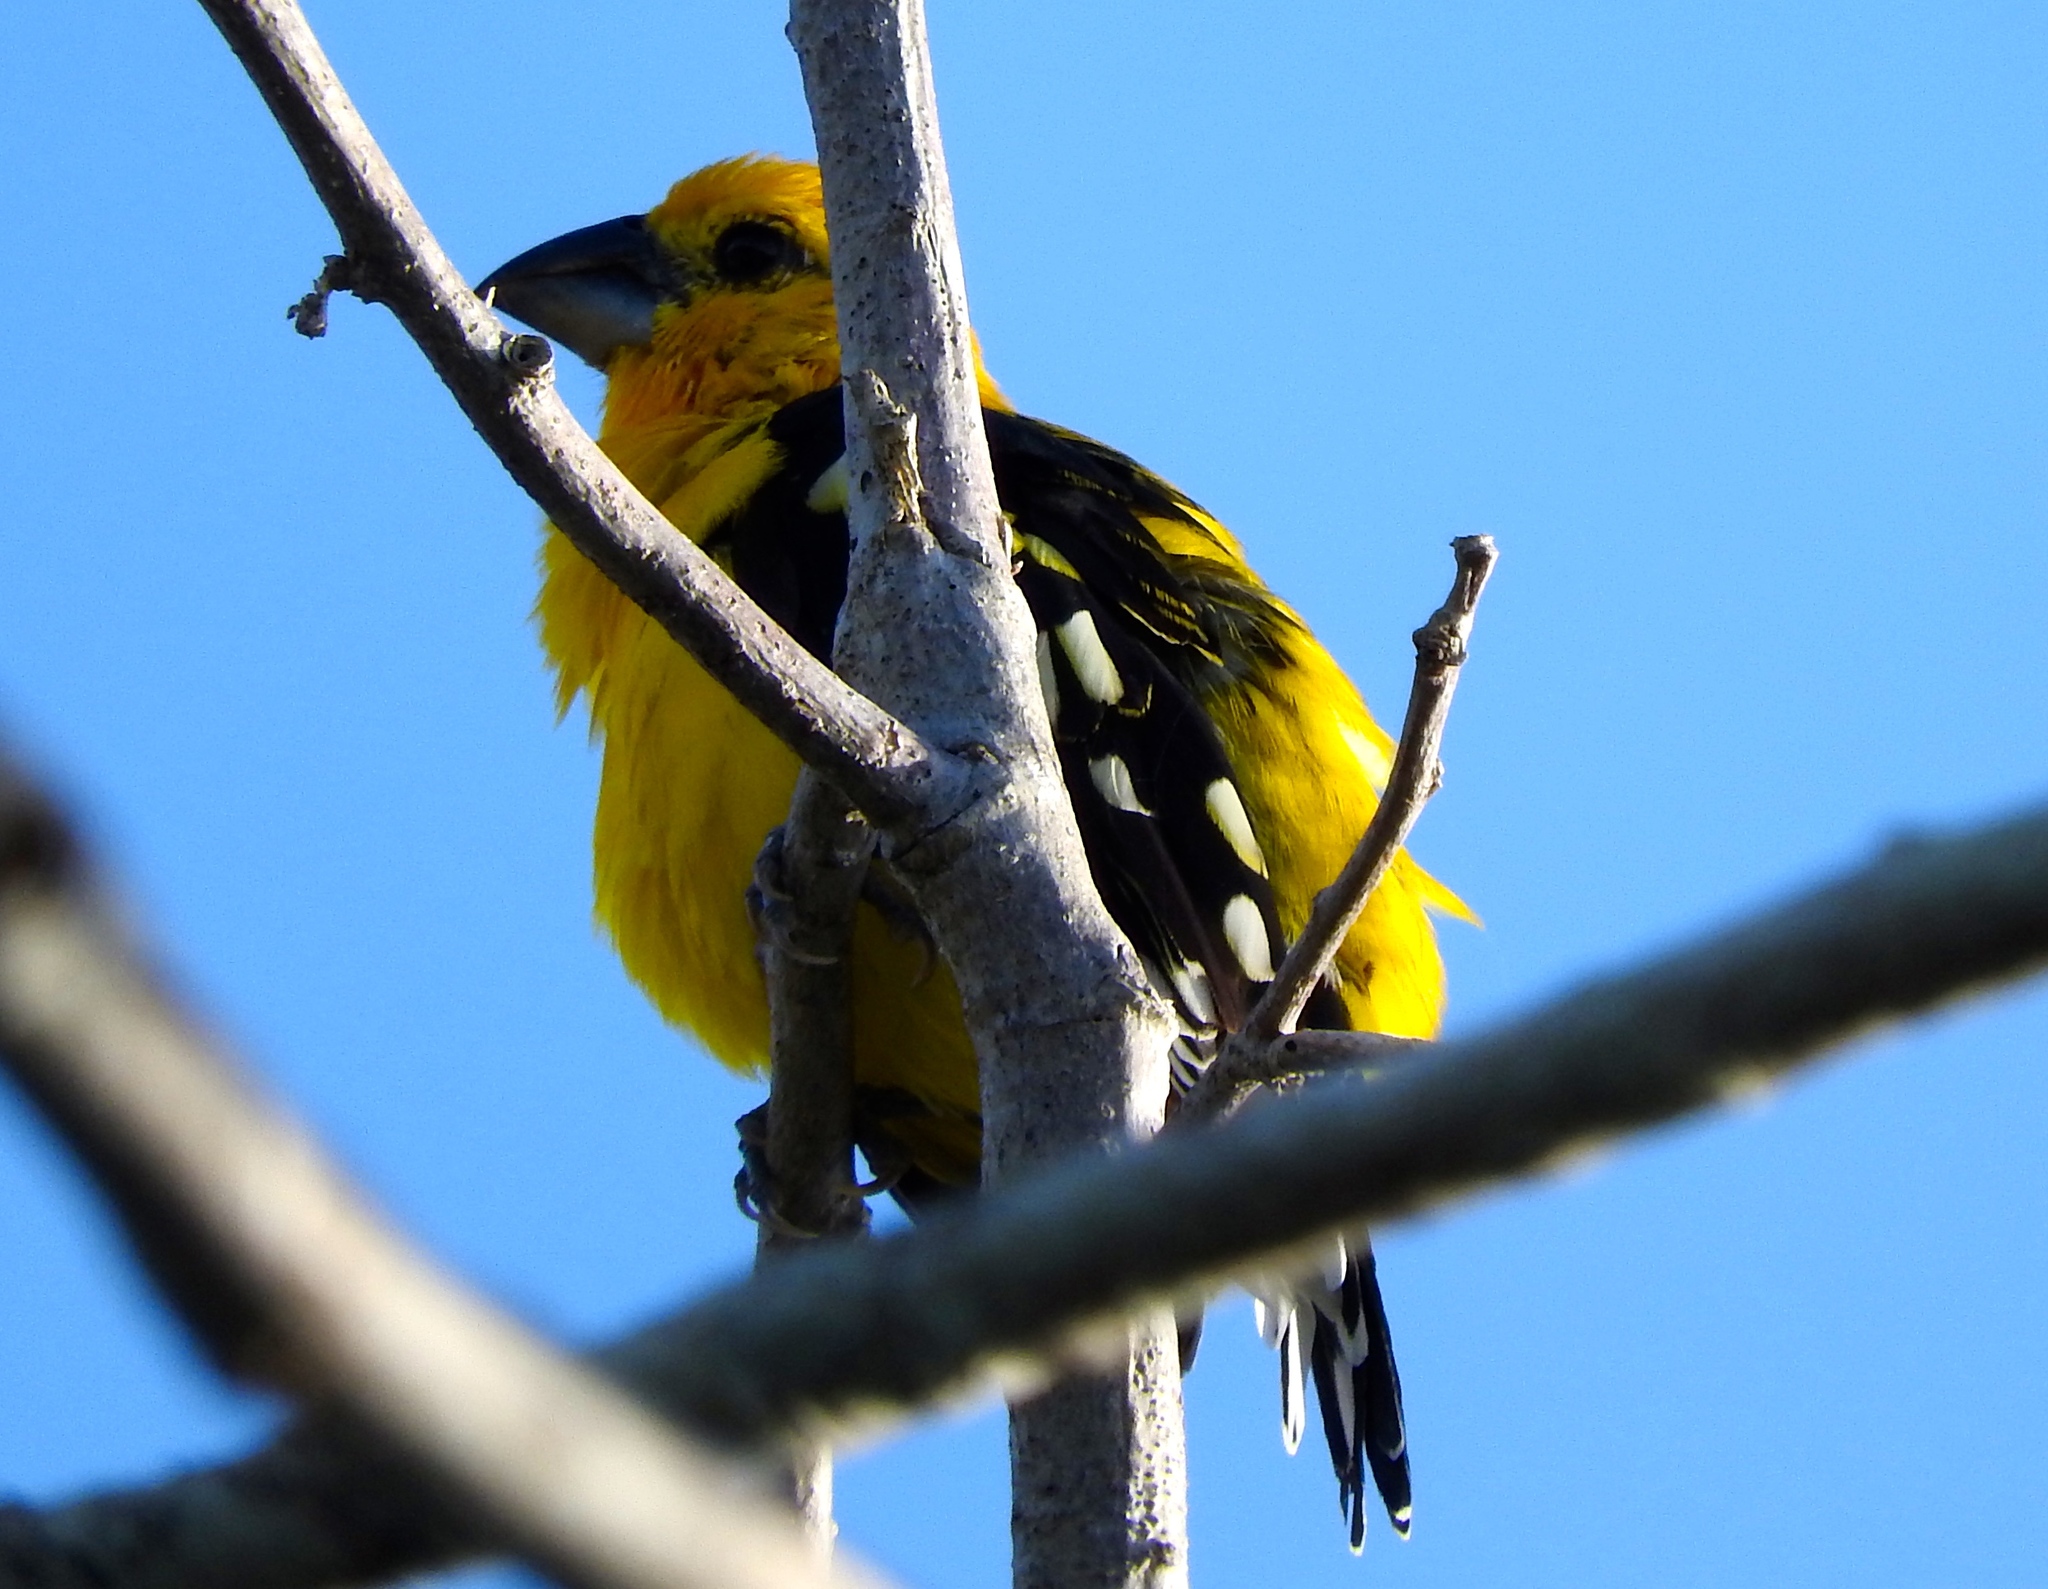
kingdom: Animalia
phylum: Chordata
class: Aves
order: Passeriformes
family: Cardinalidae
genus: Pheucticus
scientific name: Pheucticus chrysopeplus
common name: Yellow grosbeak
